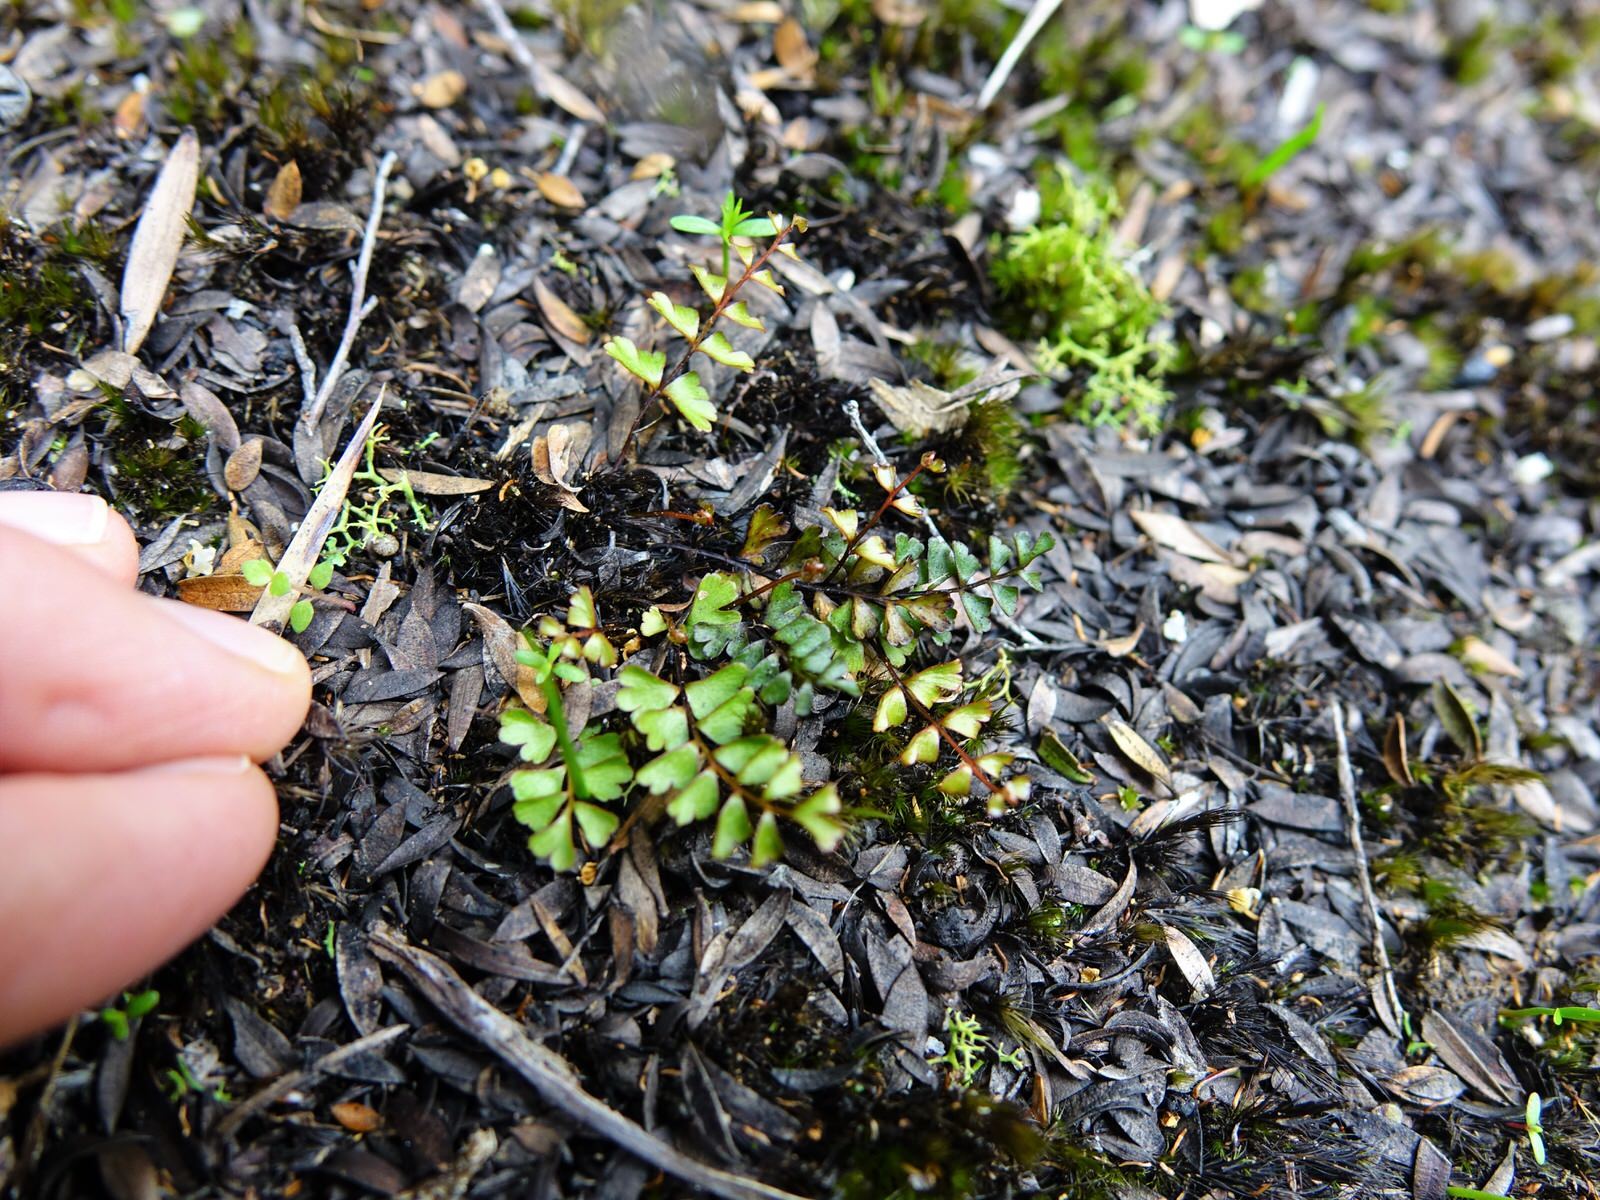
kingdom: Plantae
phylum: Tracheophyta
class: Polypodiopsida
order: Polypodiales
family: Lindsaeaceae
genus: Lindsaea
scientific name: Lindsaea linearis
